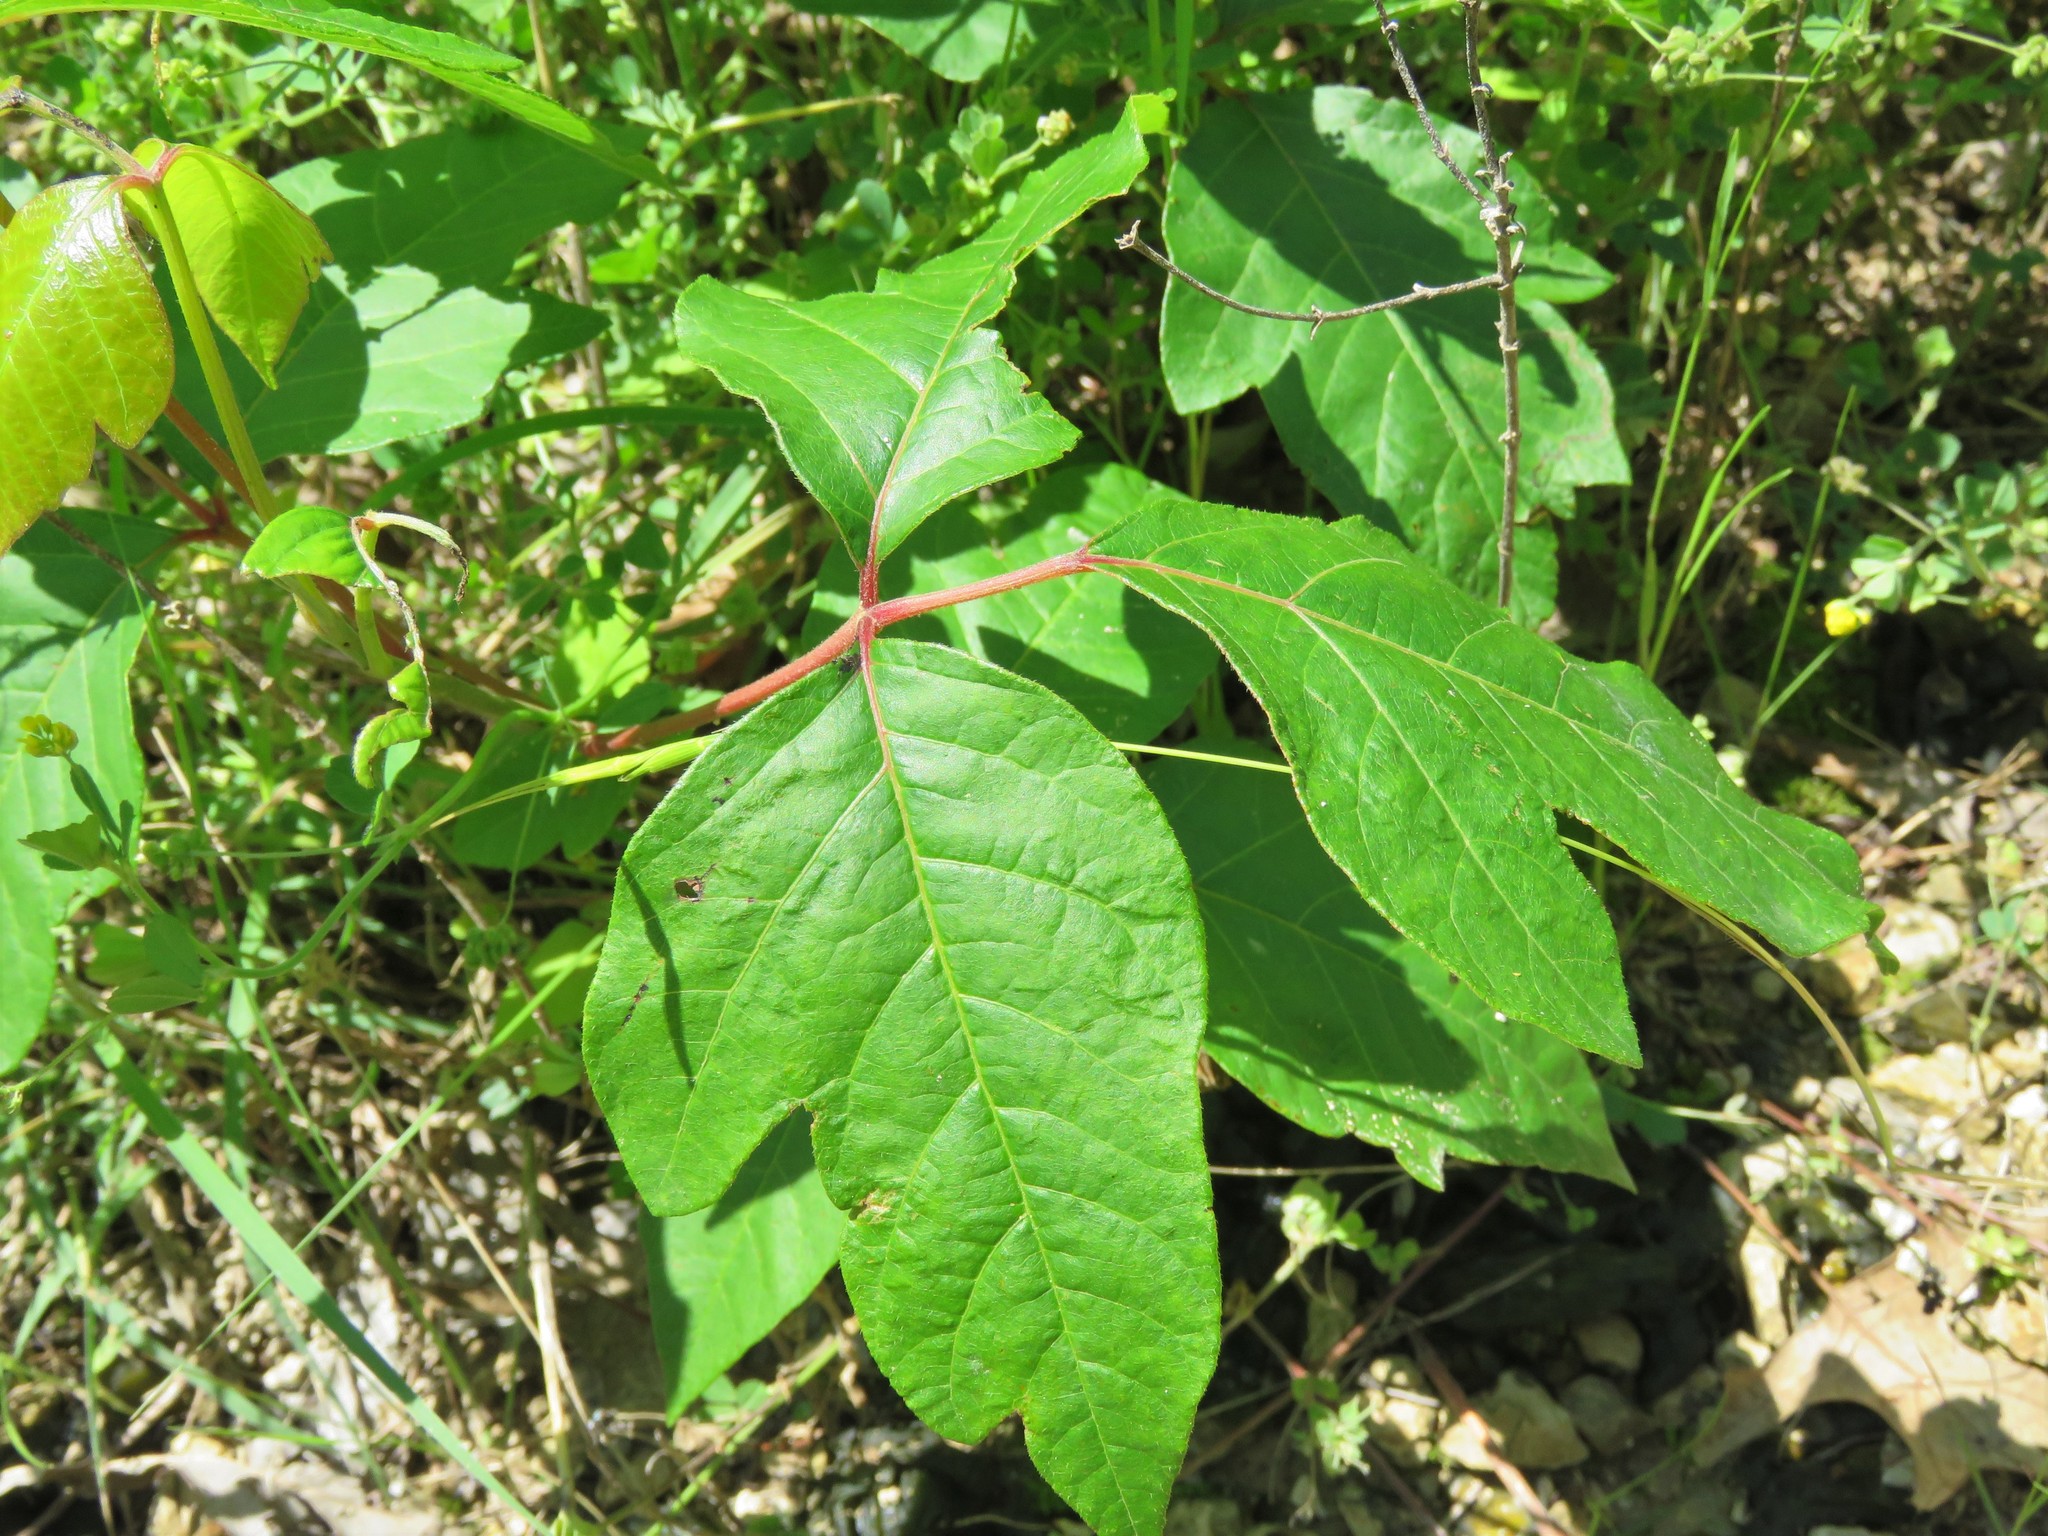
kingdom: Plantae
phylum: Tracheophyta
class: Magnoliopsida
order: Sapindales
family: Anacardiaceae
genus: Toxicodendron
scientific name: Toxicodendron radicans
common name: Poison ivy
